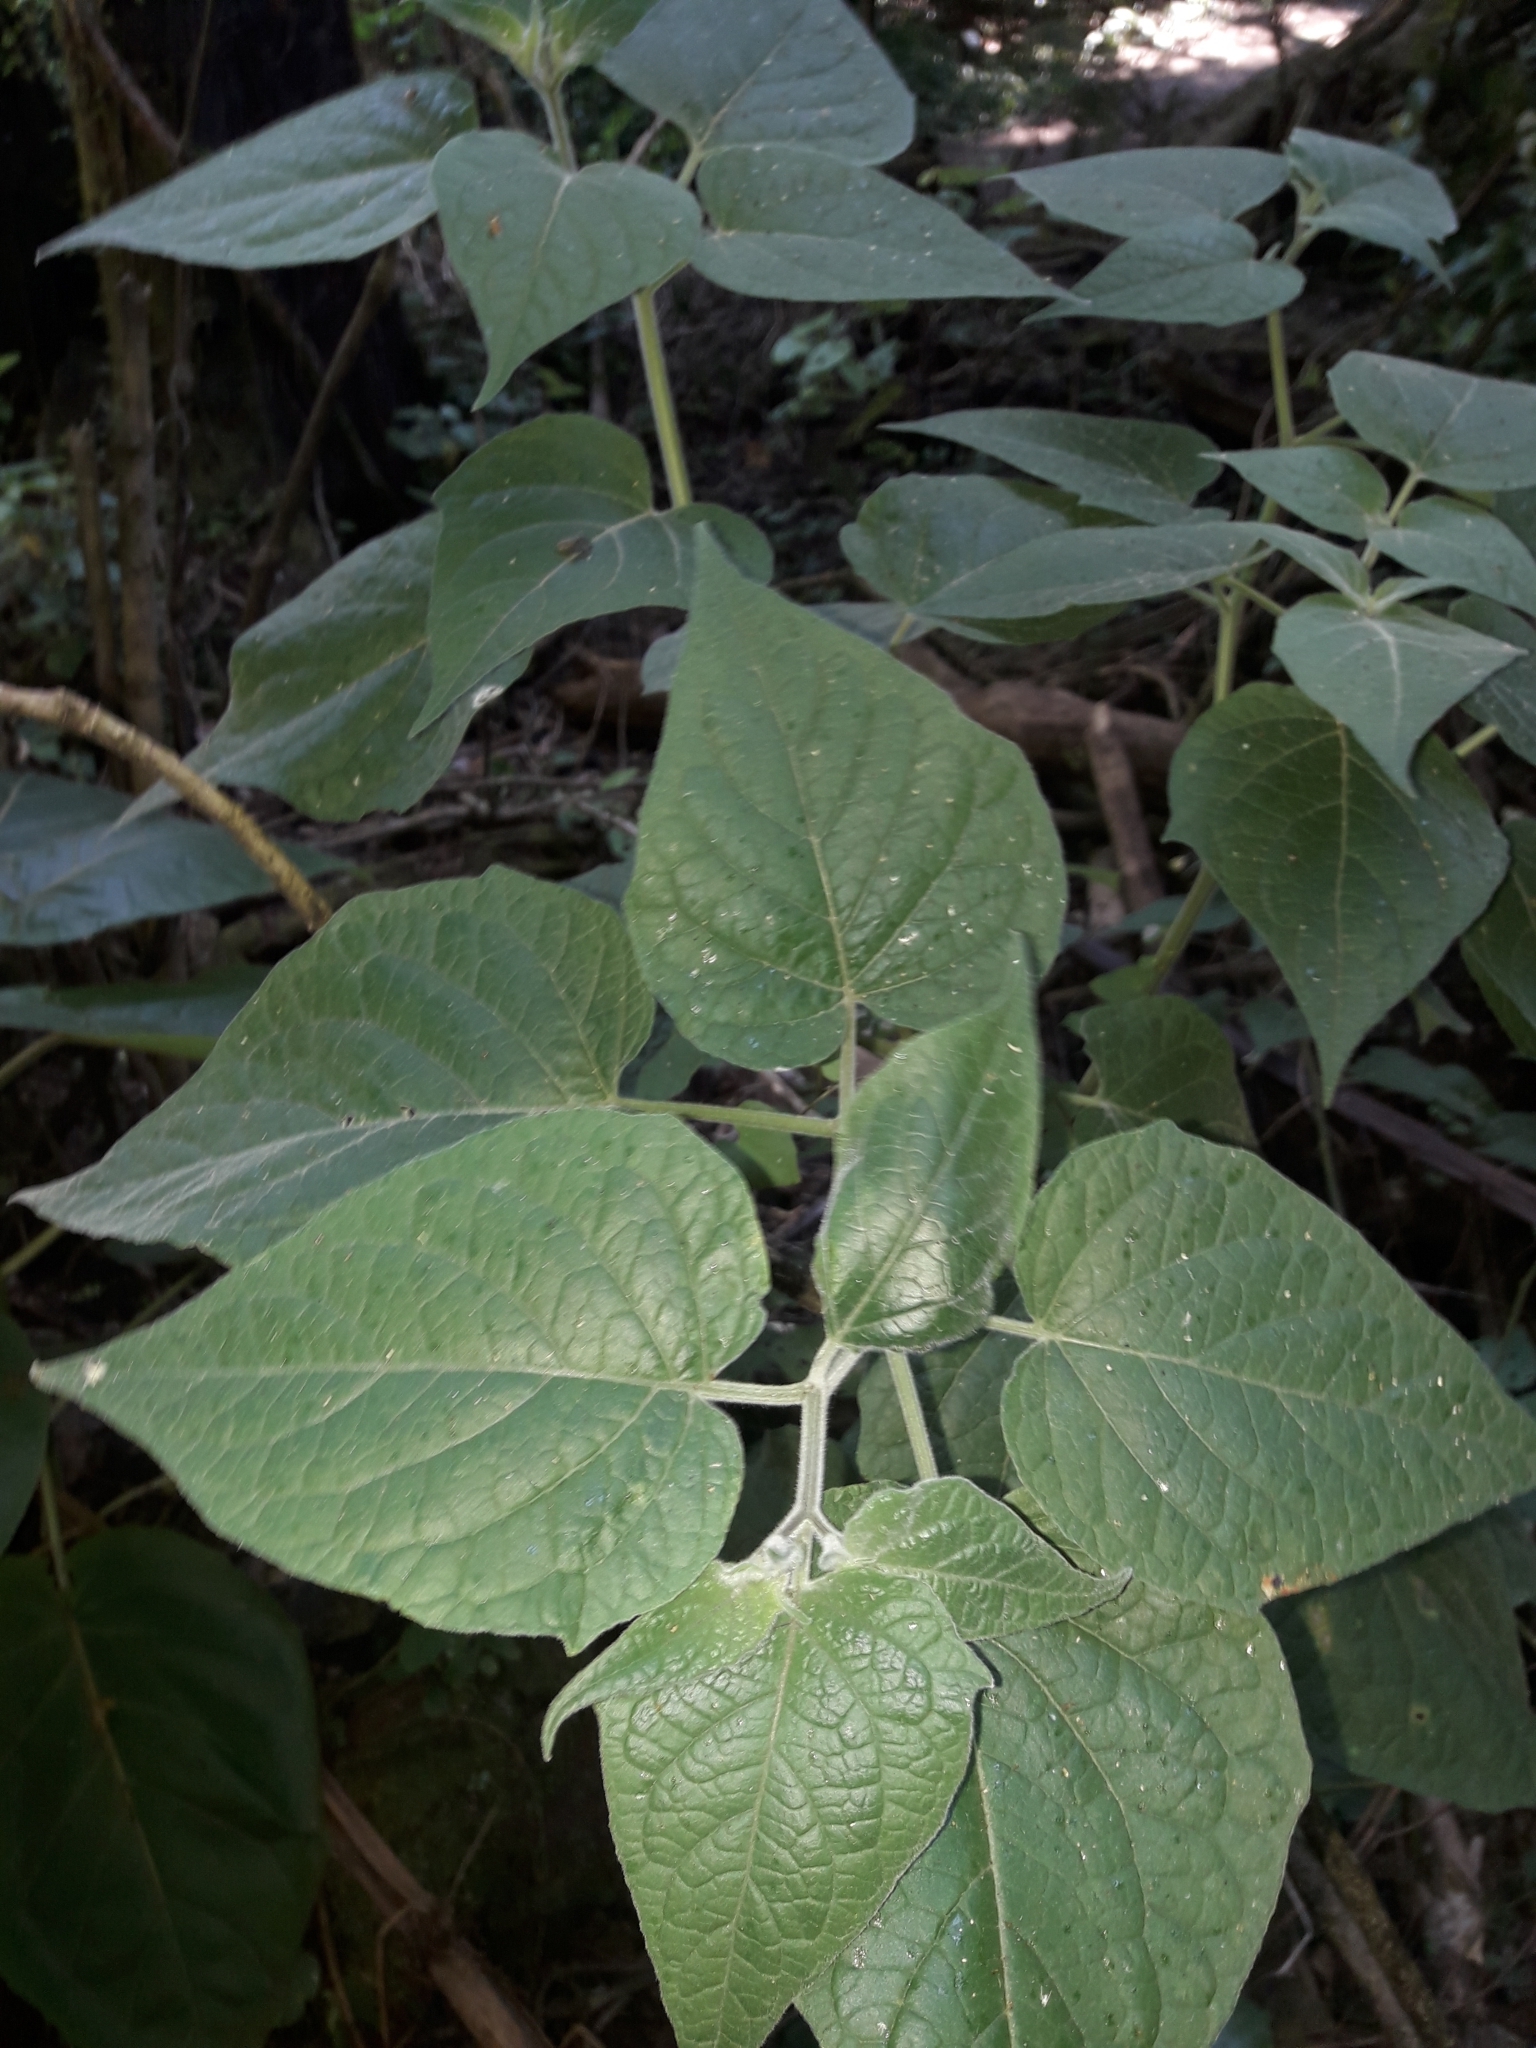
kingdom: Plantae
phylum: Tracheophyta
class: Magnoliopsida
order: Solanales
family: Solanaceae
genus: Physalis
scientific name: Physalis peruviana
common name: Cape-gooseberry
